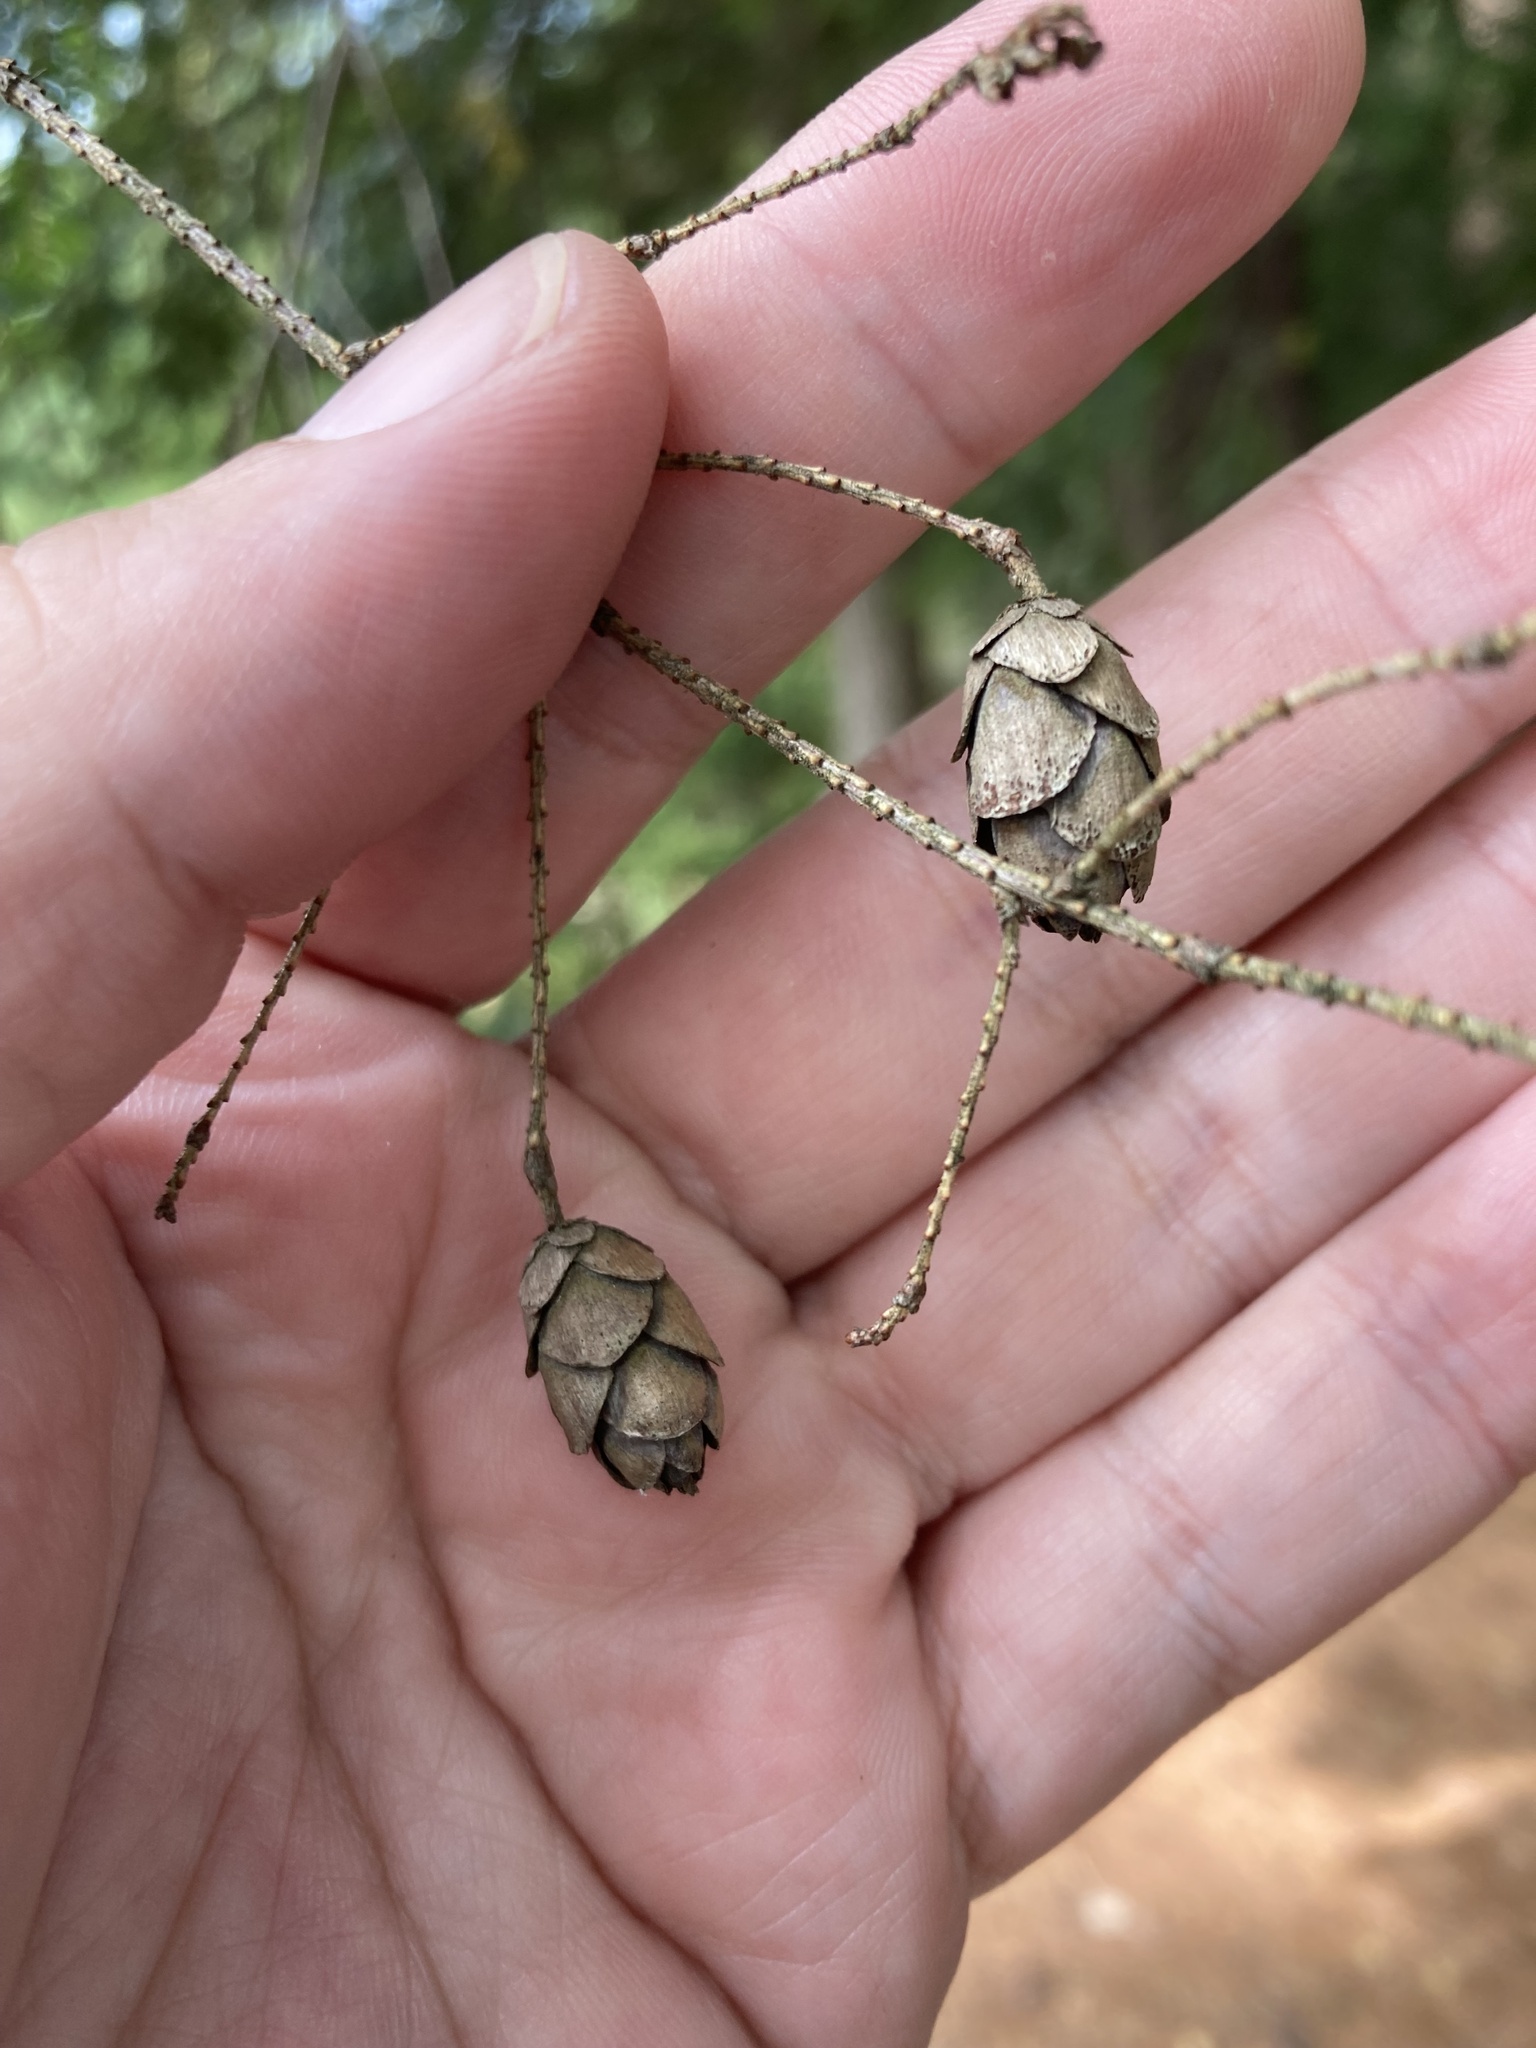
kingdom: Plantae
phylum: Tracheophyta
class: Pinopsida
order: Pinales
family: Pinaceae
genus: Tsuga
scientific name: Tsuga canadensis
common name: Eastern hemlock
